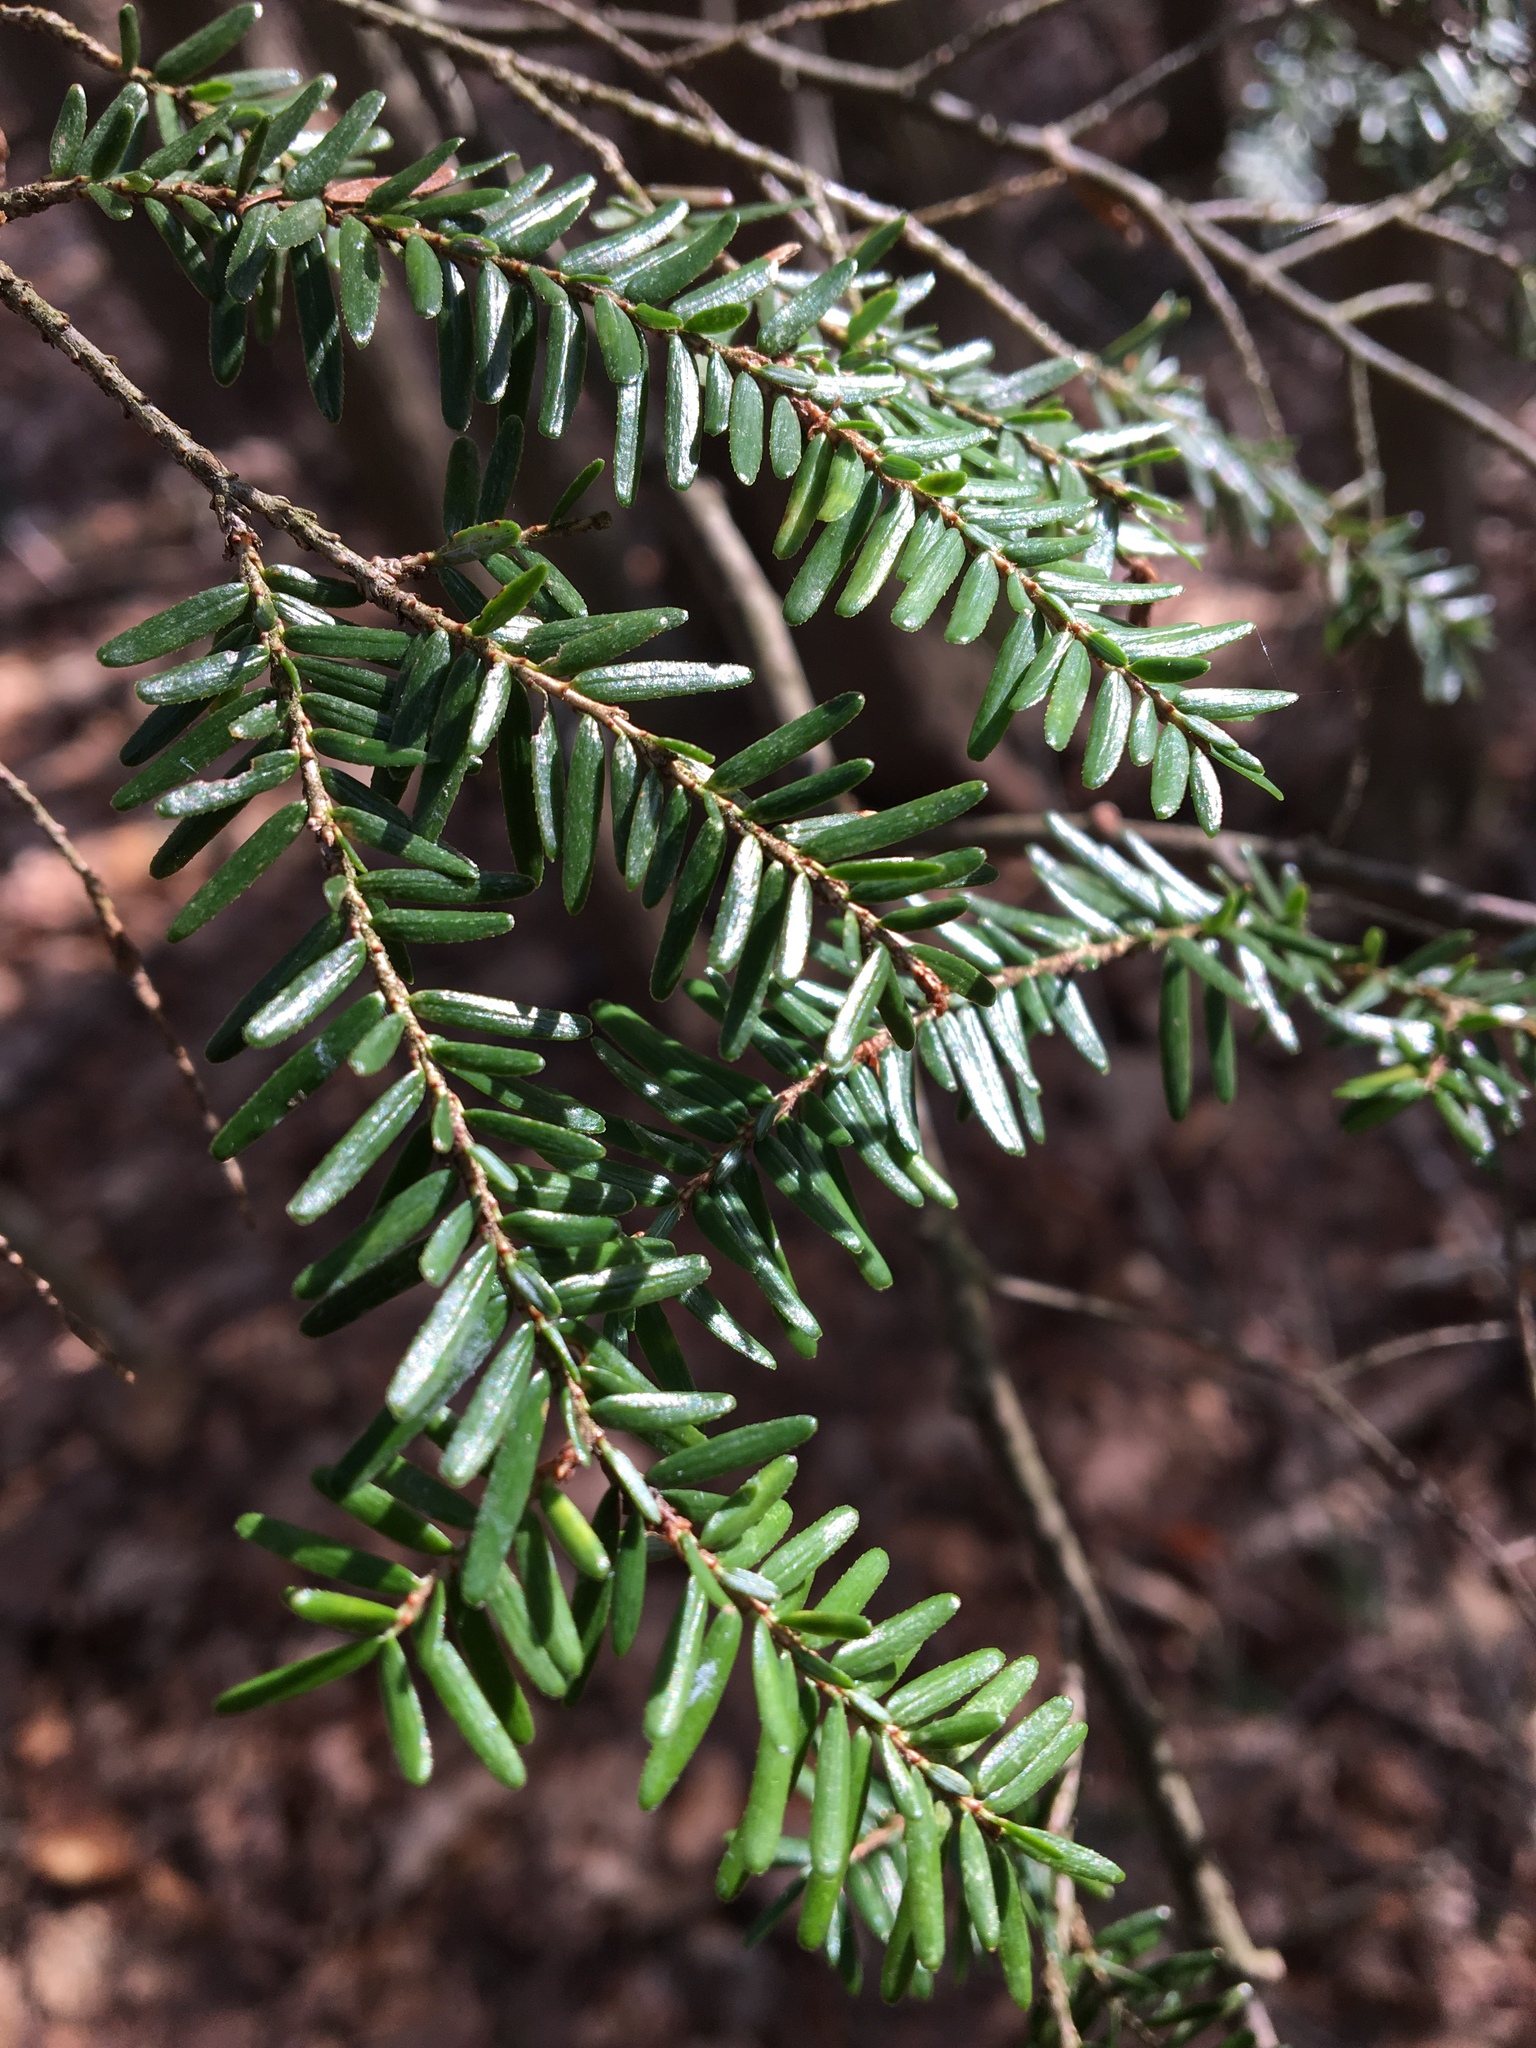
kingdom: Plantae
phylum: Tracheophyta
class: Pinopsida
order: Pinales
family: Pinaceae
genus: Tsuga
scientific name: Tsuga canadensis
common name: Eastern hemlock
